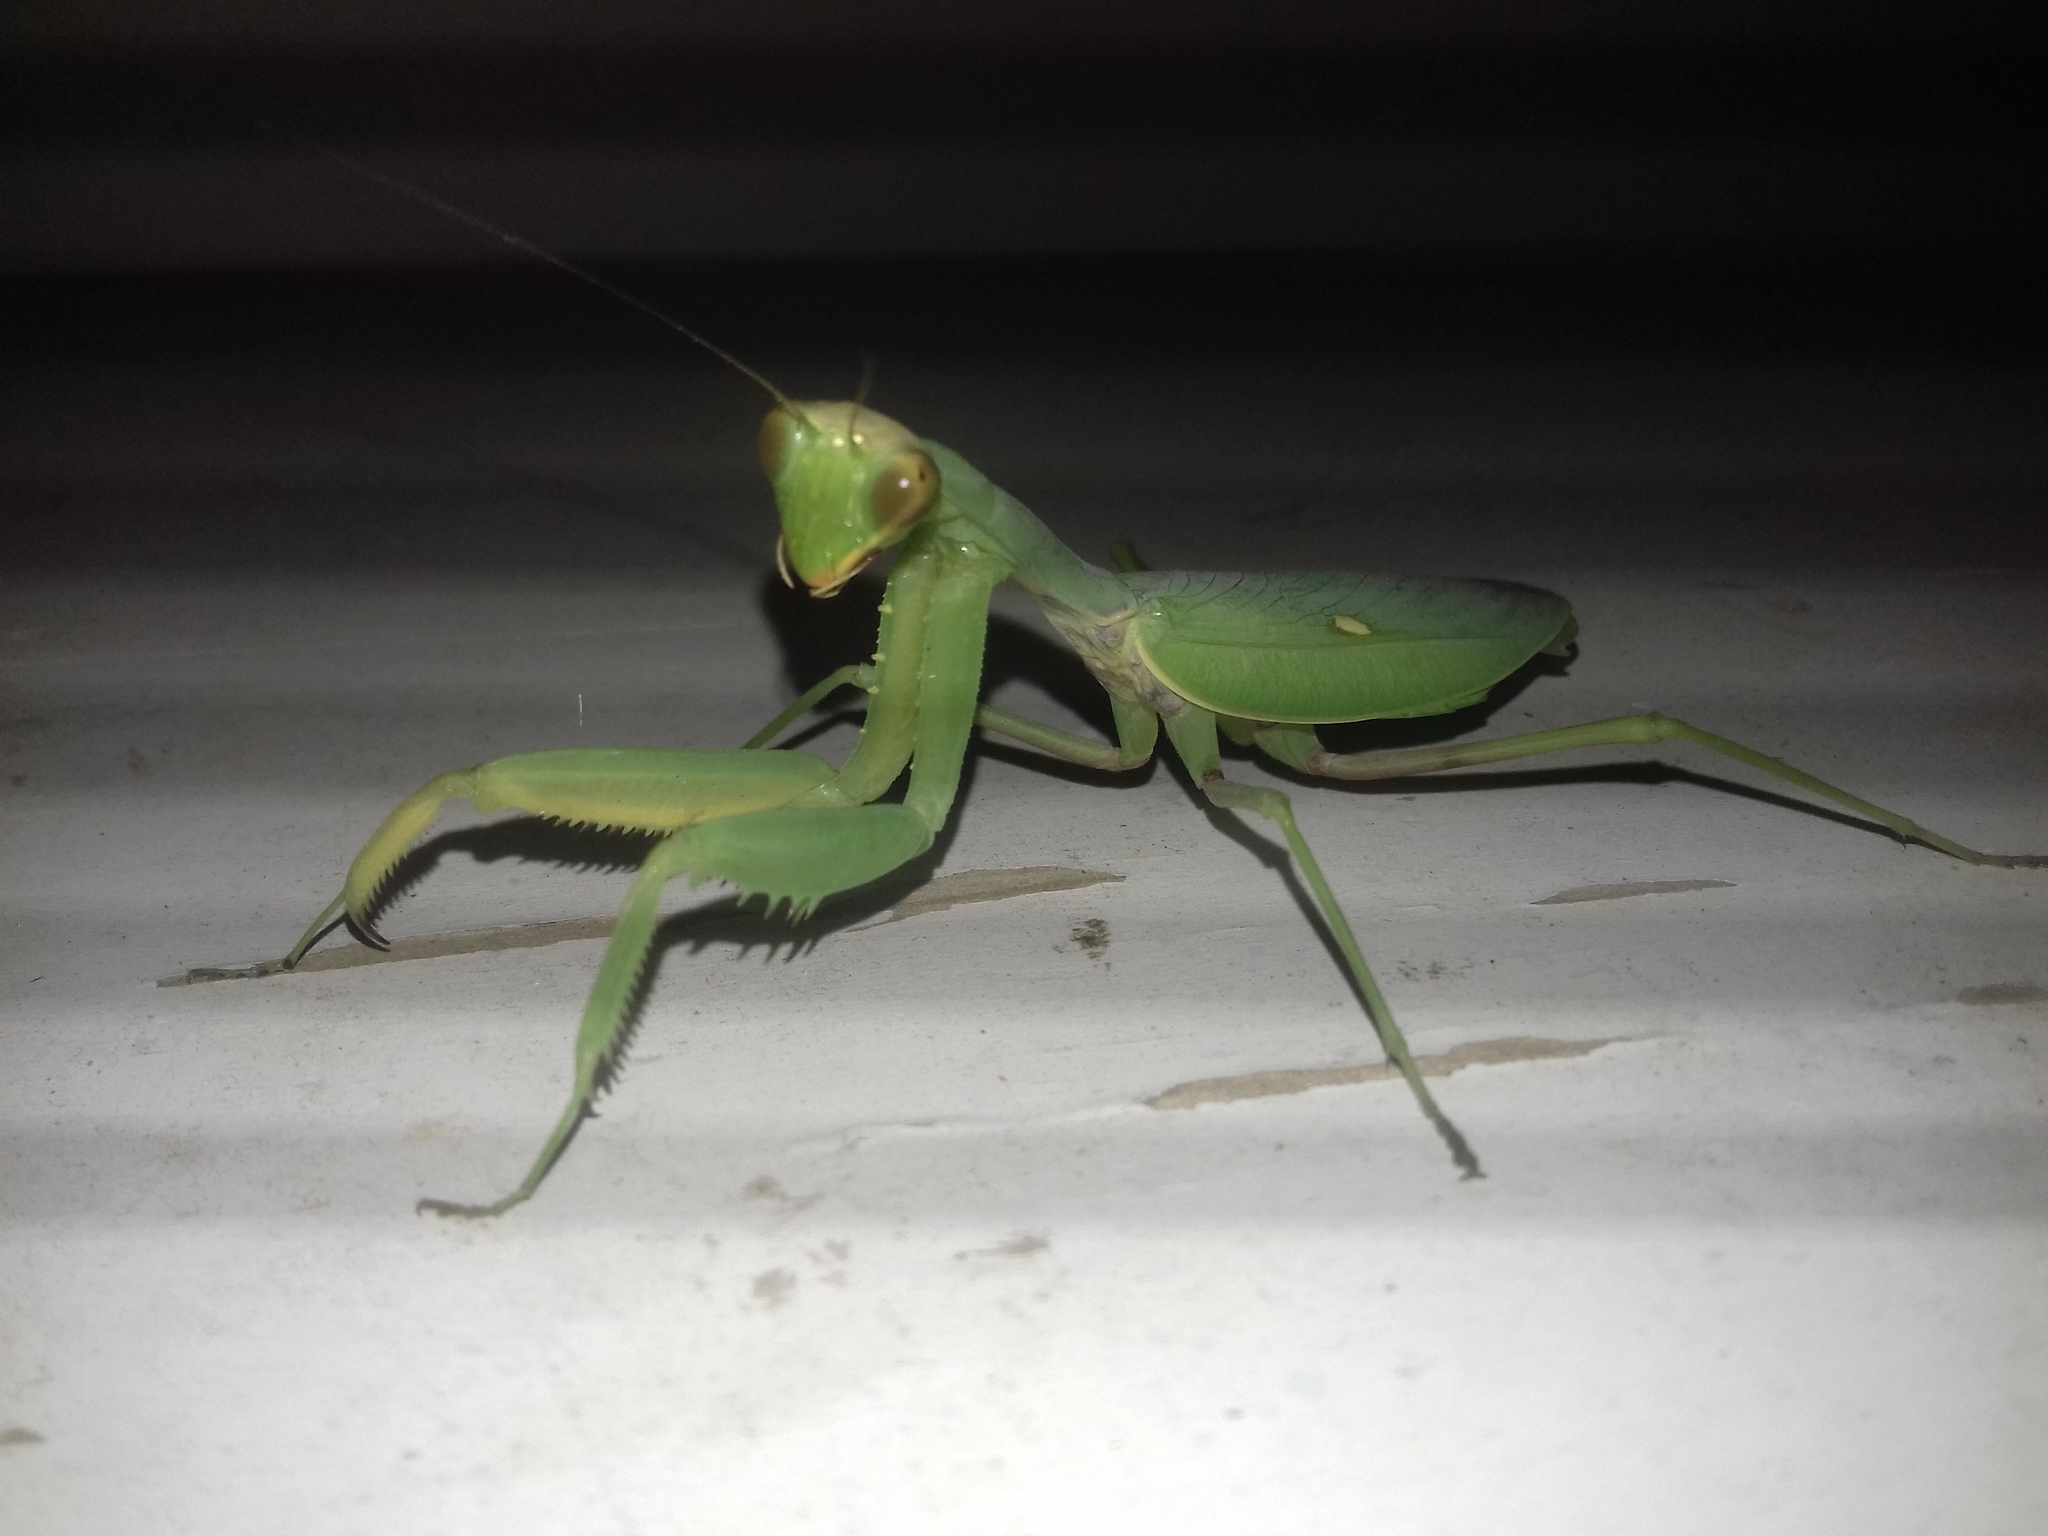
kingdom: Animalia
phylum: Arthropoda
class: Insecta
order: Mantodea
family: Mantidae
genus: Hierodula
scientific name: Hierodula transcaucasica
